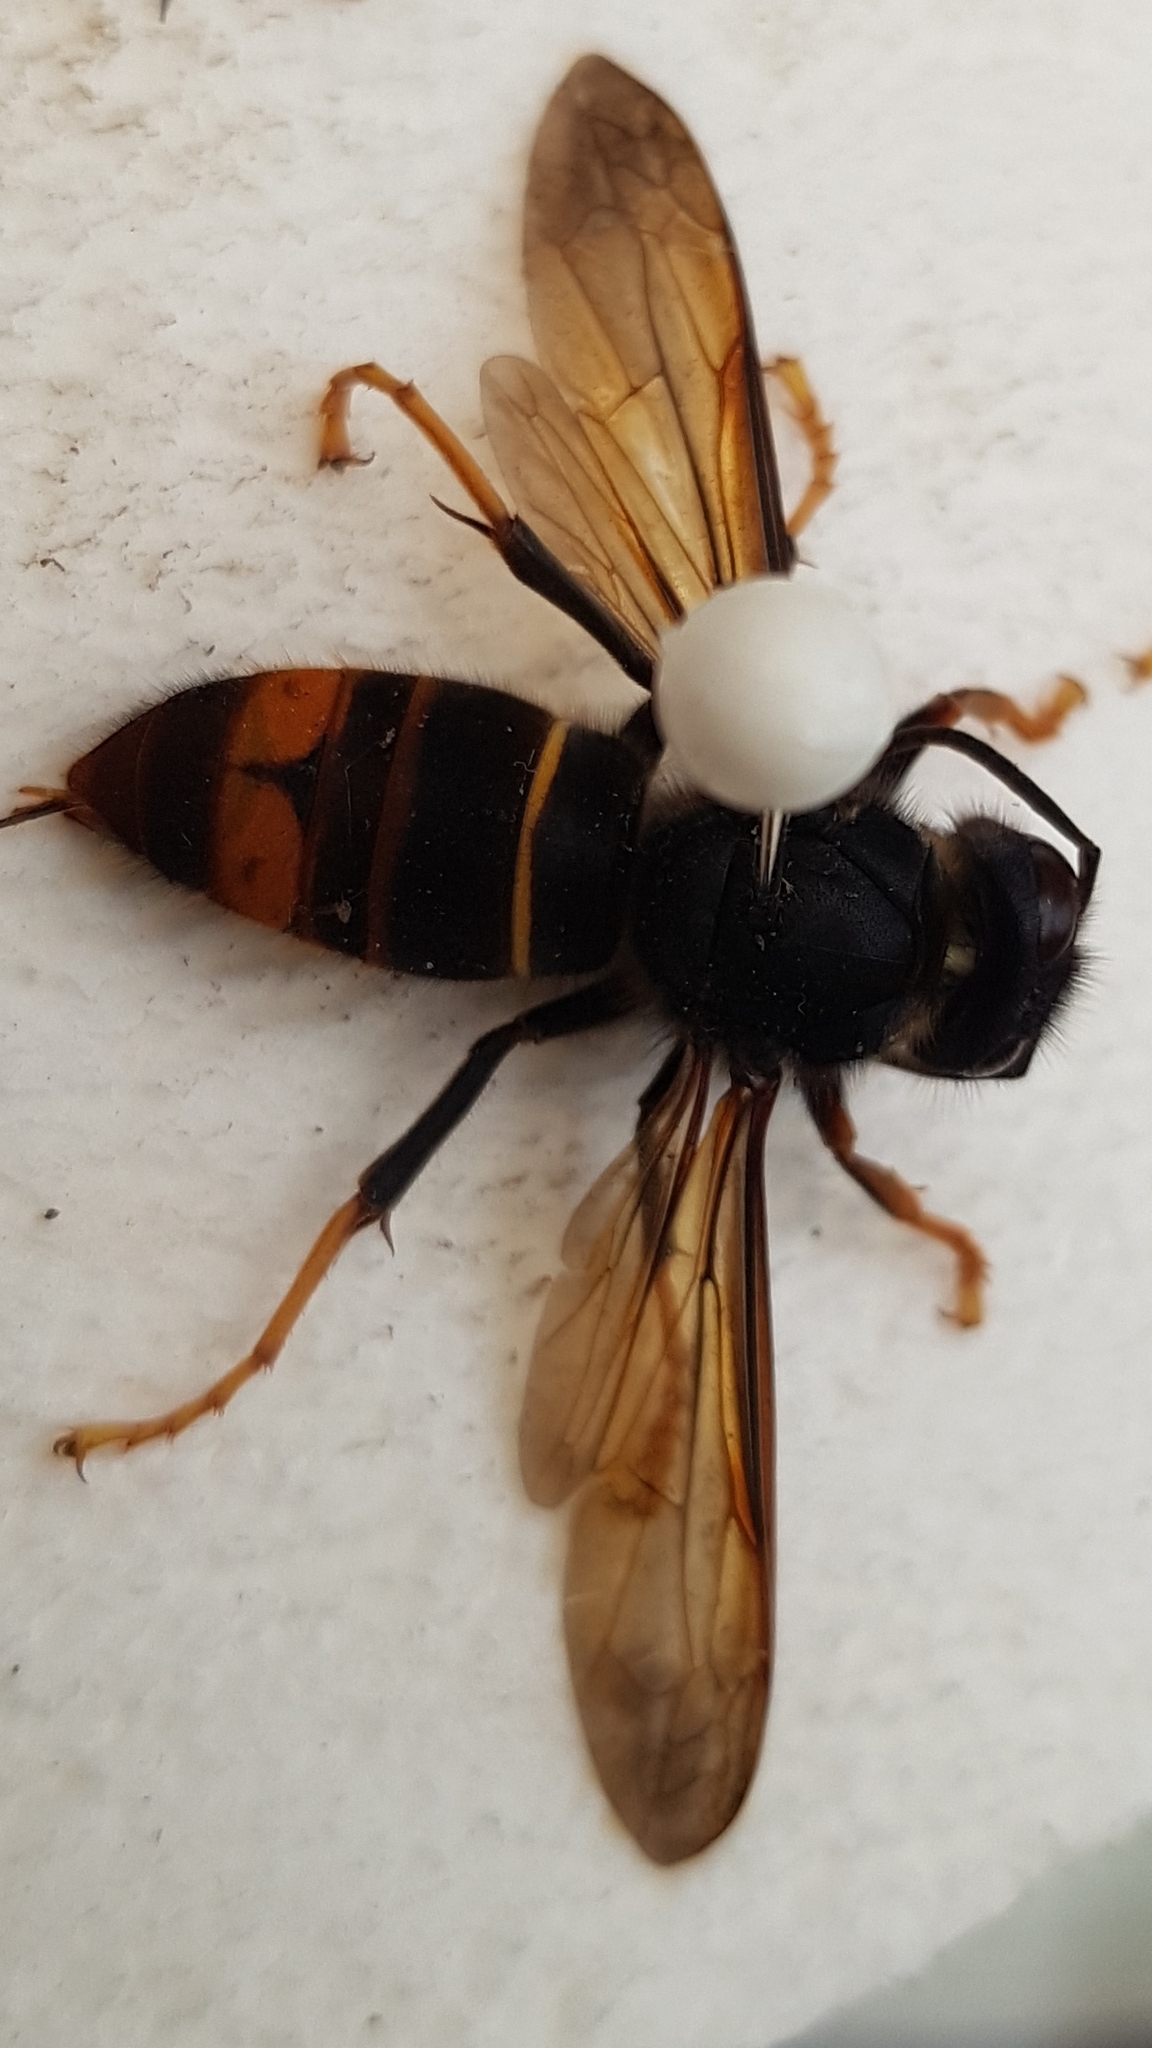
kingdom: Animalia
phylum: Arthropoda
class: Insecta
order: Hymenoptera
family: Vespidae
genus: Vespa
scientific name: Vespa velutina
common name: Asian hornet
